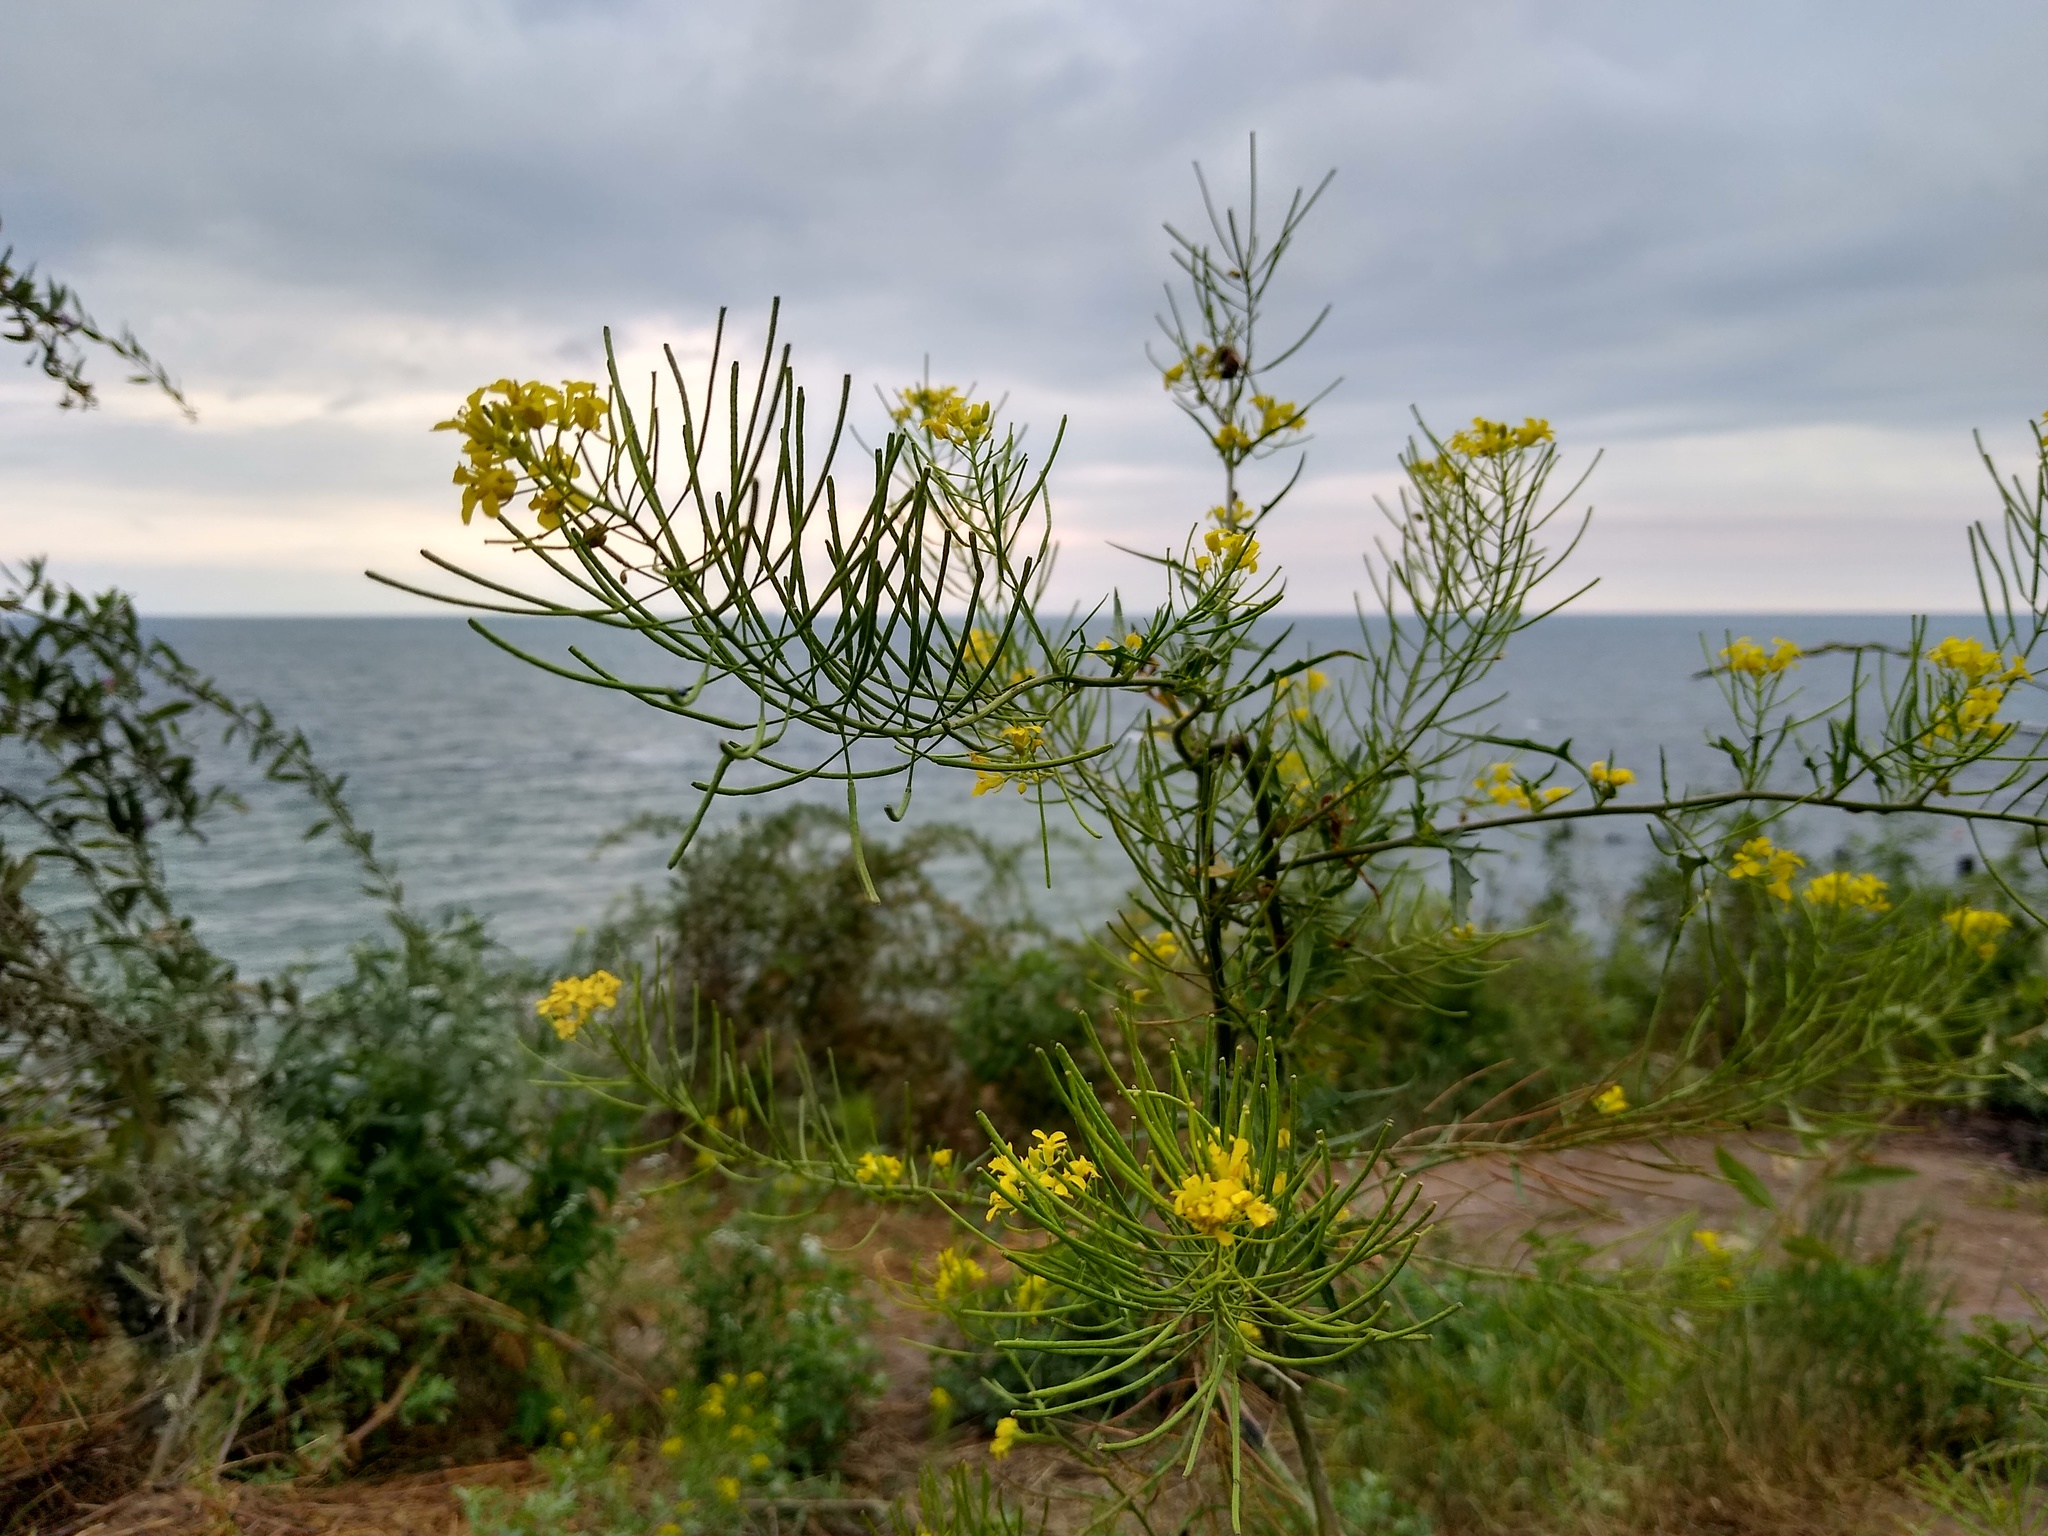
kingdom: Plantae
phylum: Tracheophyta
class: Magnoliopsida
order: Brassicales
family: Brassicaceae
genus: Sisymbrium
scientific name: Sisymbrium irio
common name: London rocket
